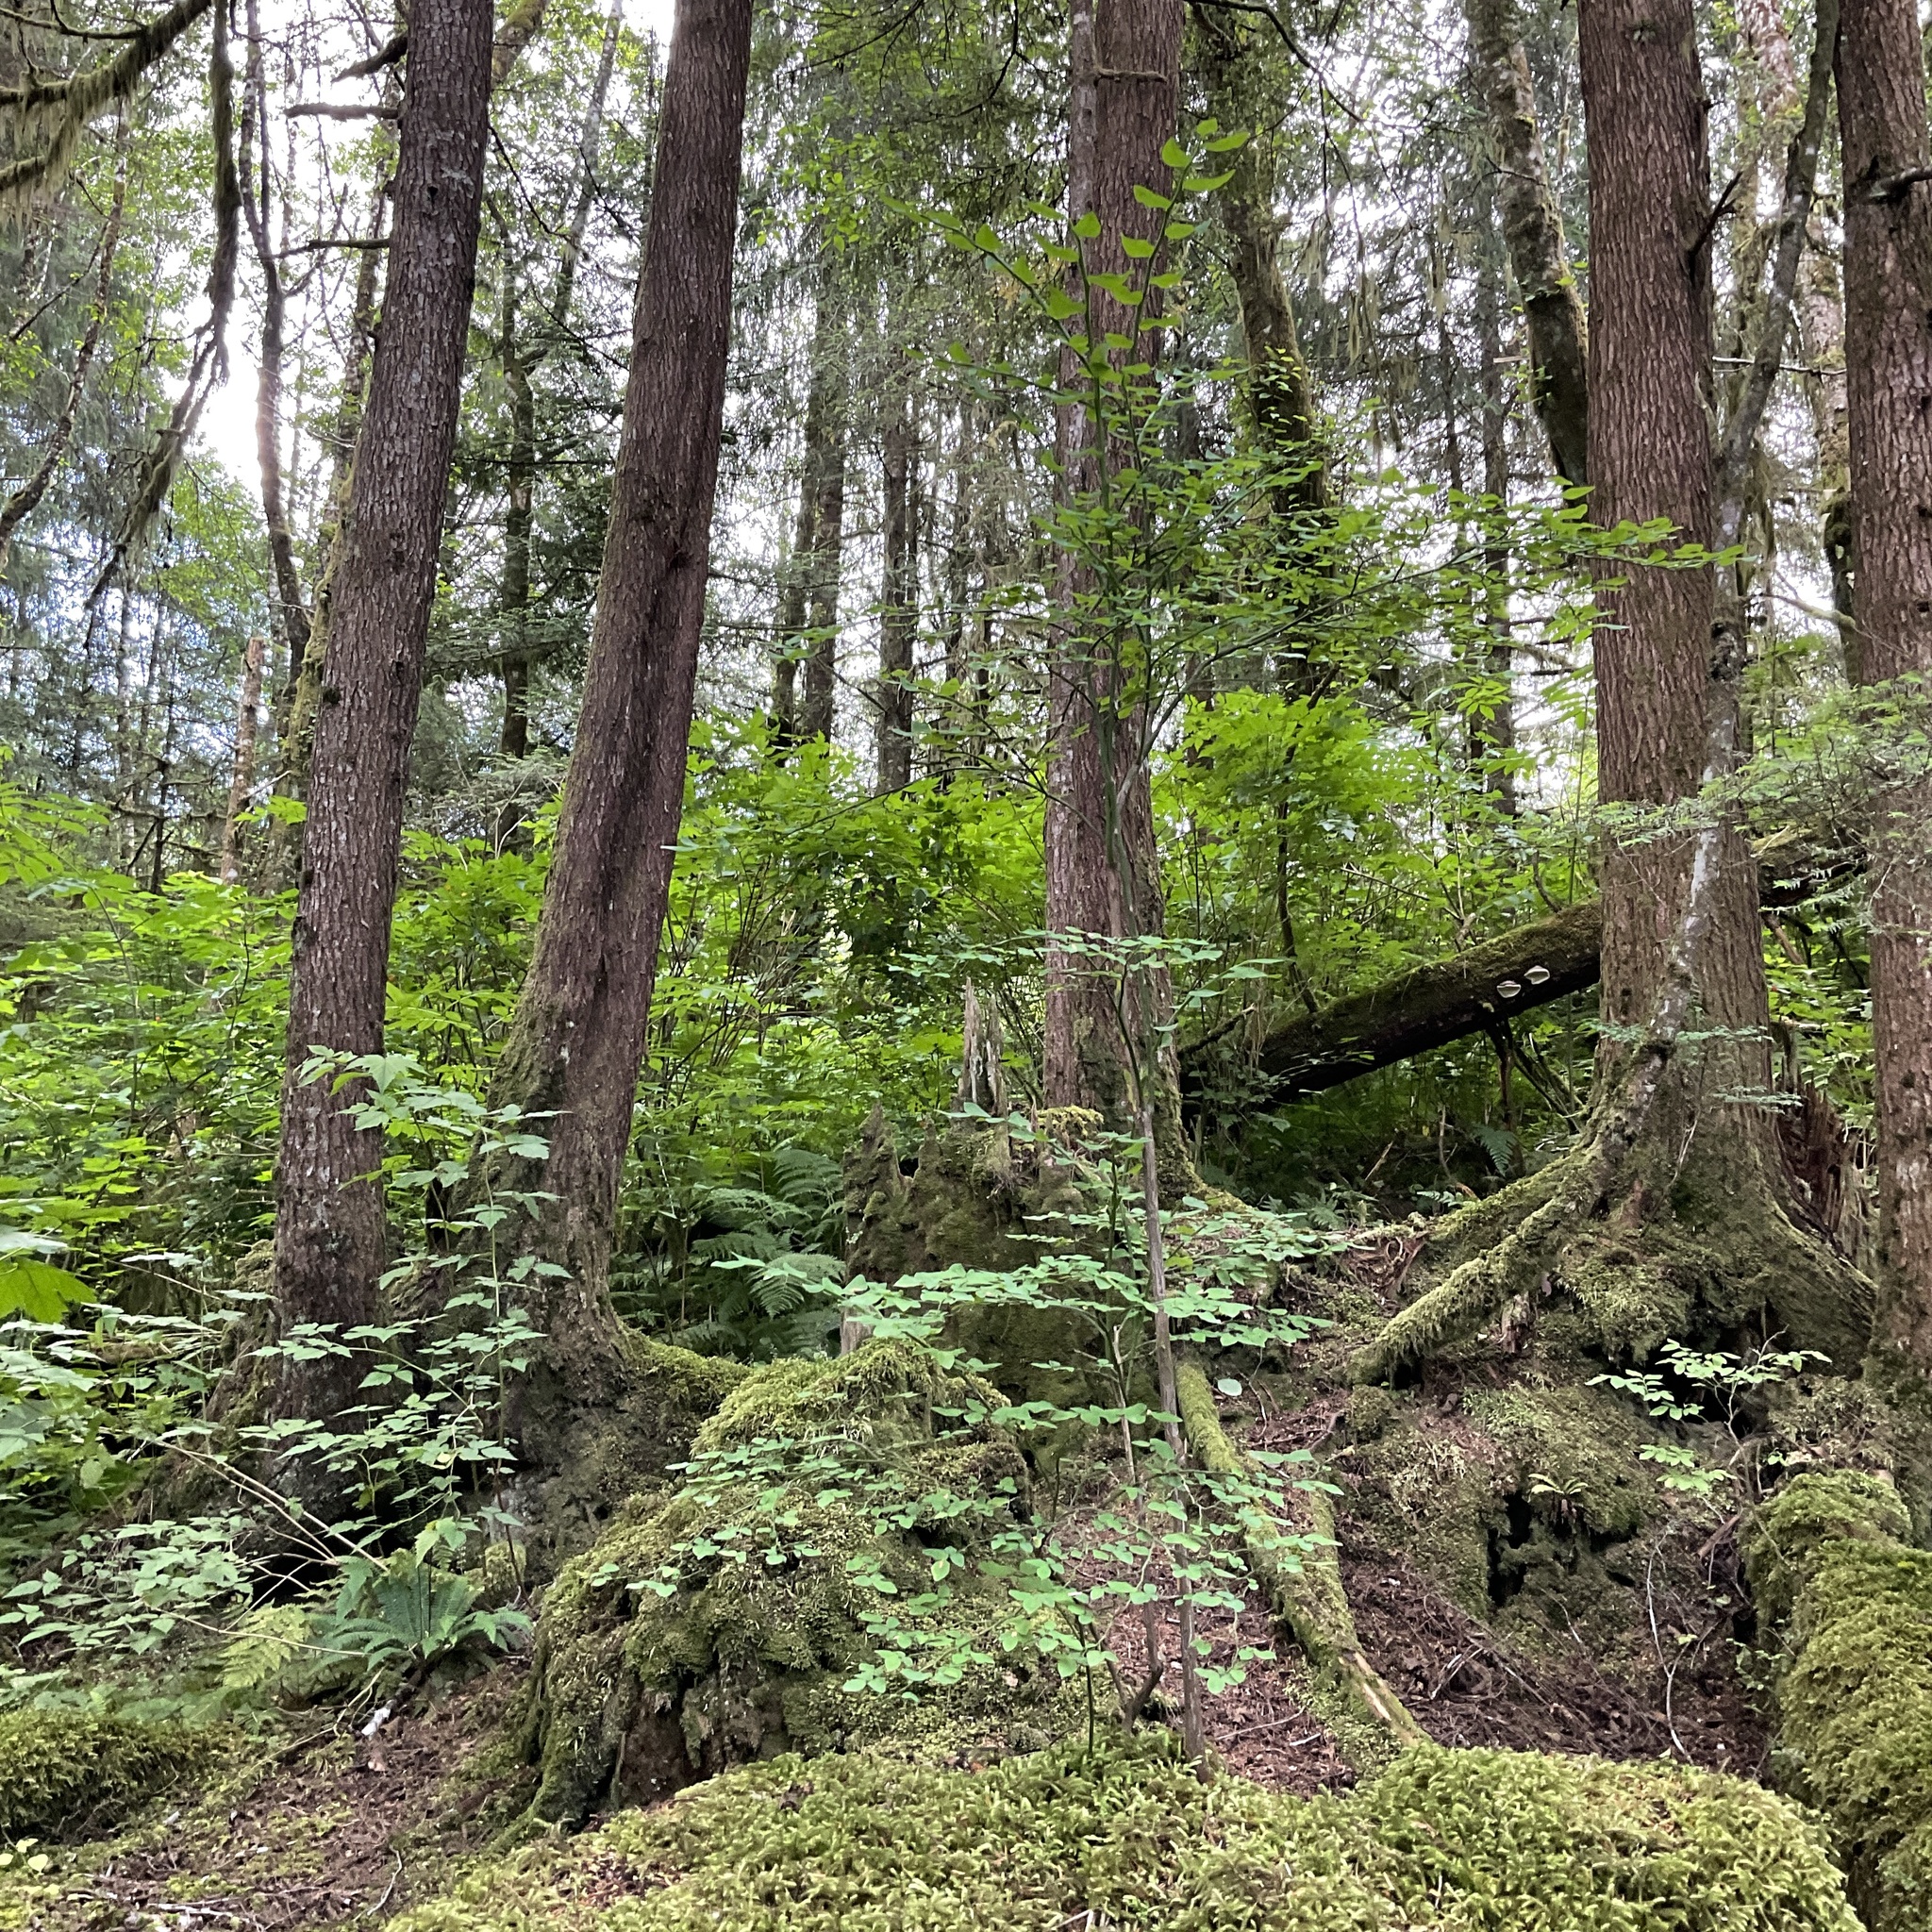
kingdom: Plantae
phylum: Tracheophyta
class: Magnoliopsida
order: Ericales
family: Ericaceae
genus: Vaccinium
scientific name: Vaccinium parvifolium
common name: Red-huckleberry
